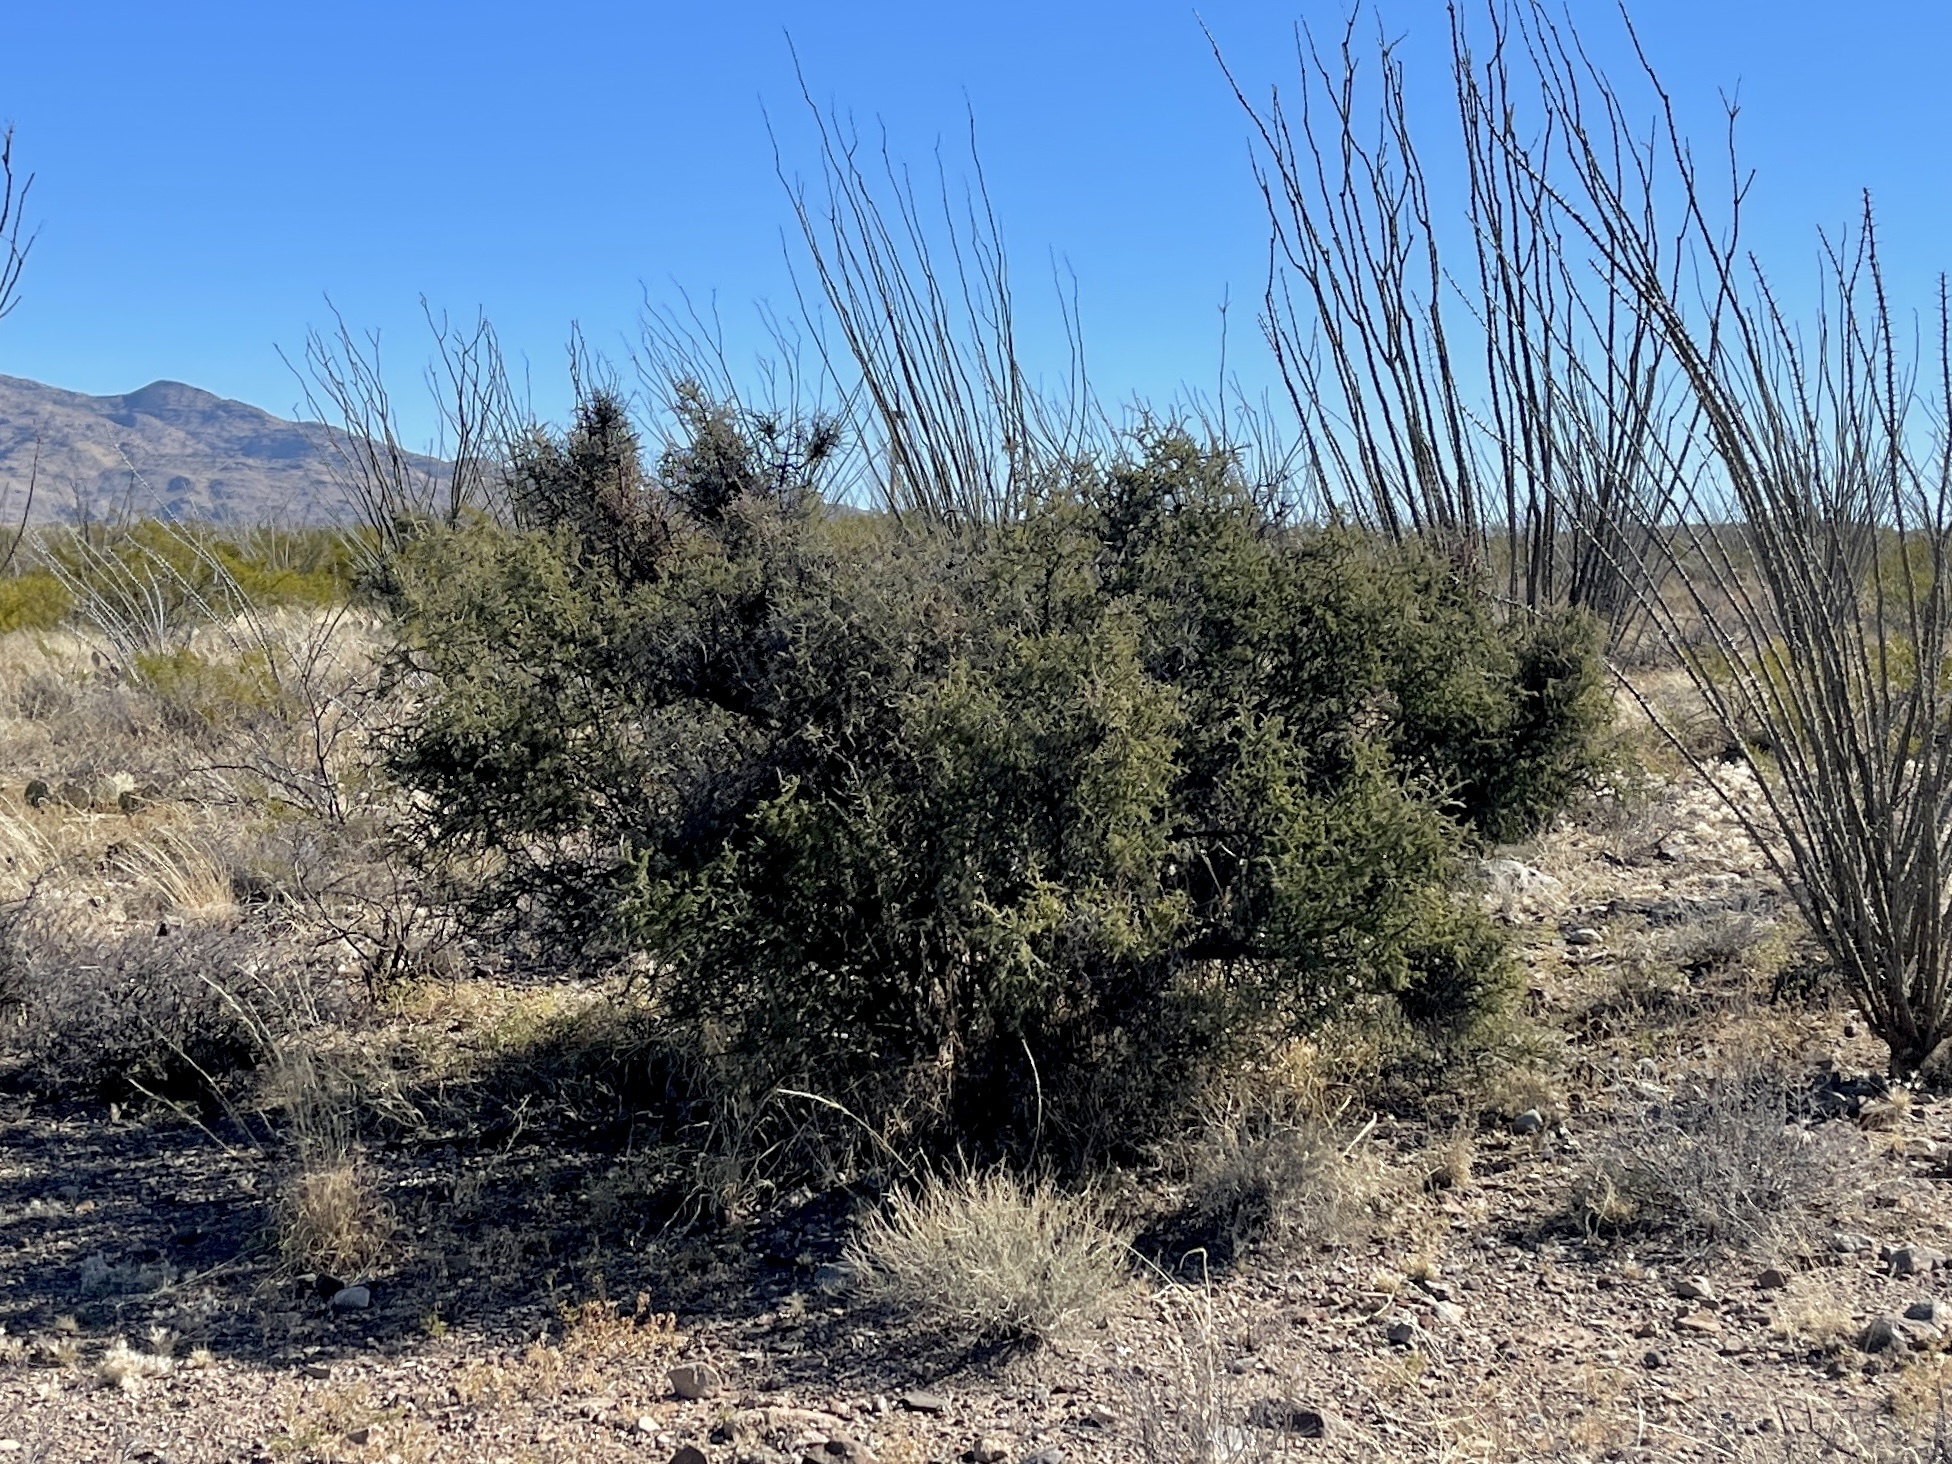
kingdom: Plantae
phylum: Tracheophyta
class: Magnoliopsida
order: Rosales
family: Rhamnaceae
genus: Condalia
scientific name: Condalia warnockii
